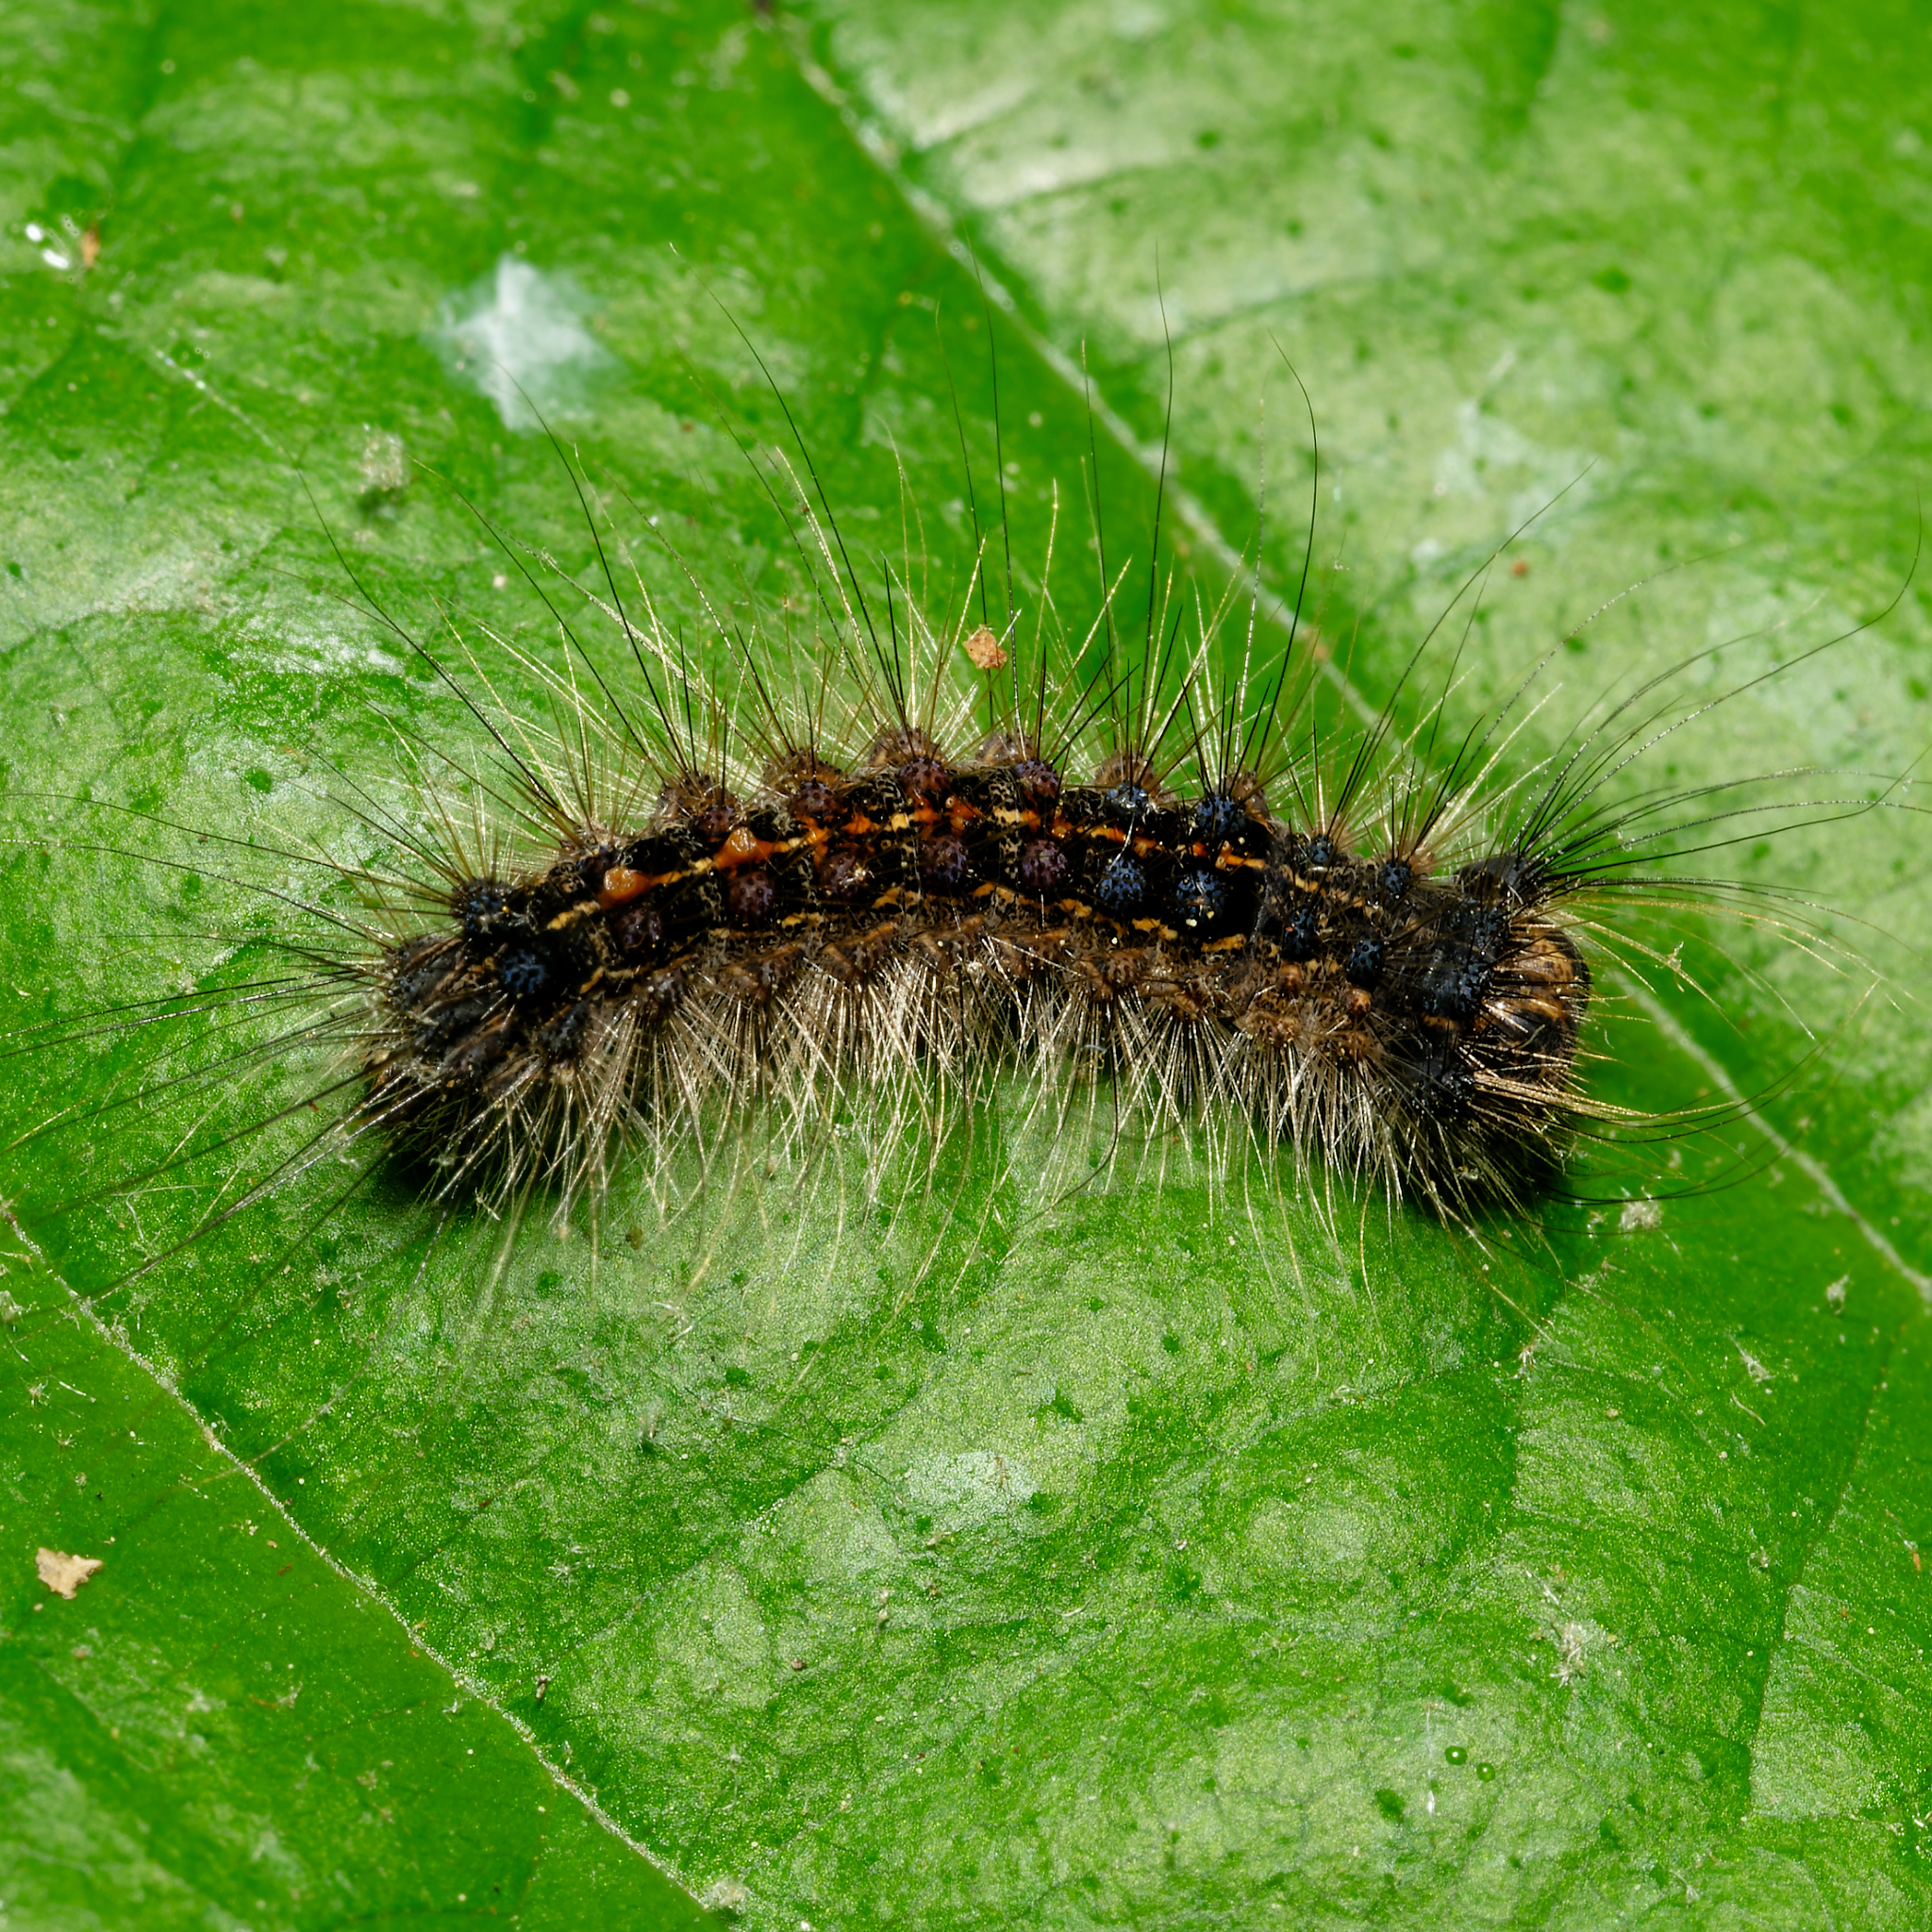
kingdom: Animalia
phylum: Arthropoda
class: Insecta
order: Lepidoptera
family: Erebidae
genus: Lymantria
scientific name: Lymantria dispar
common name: Gypsy moth
